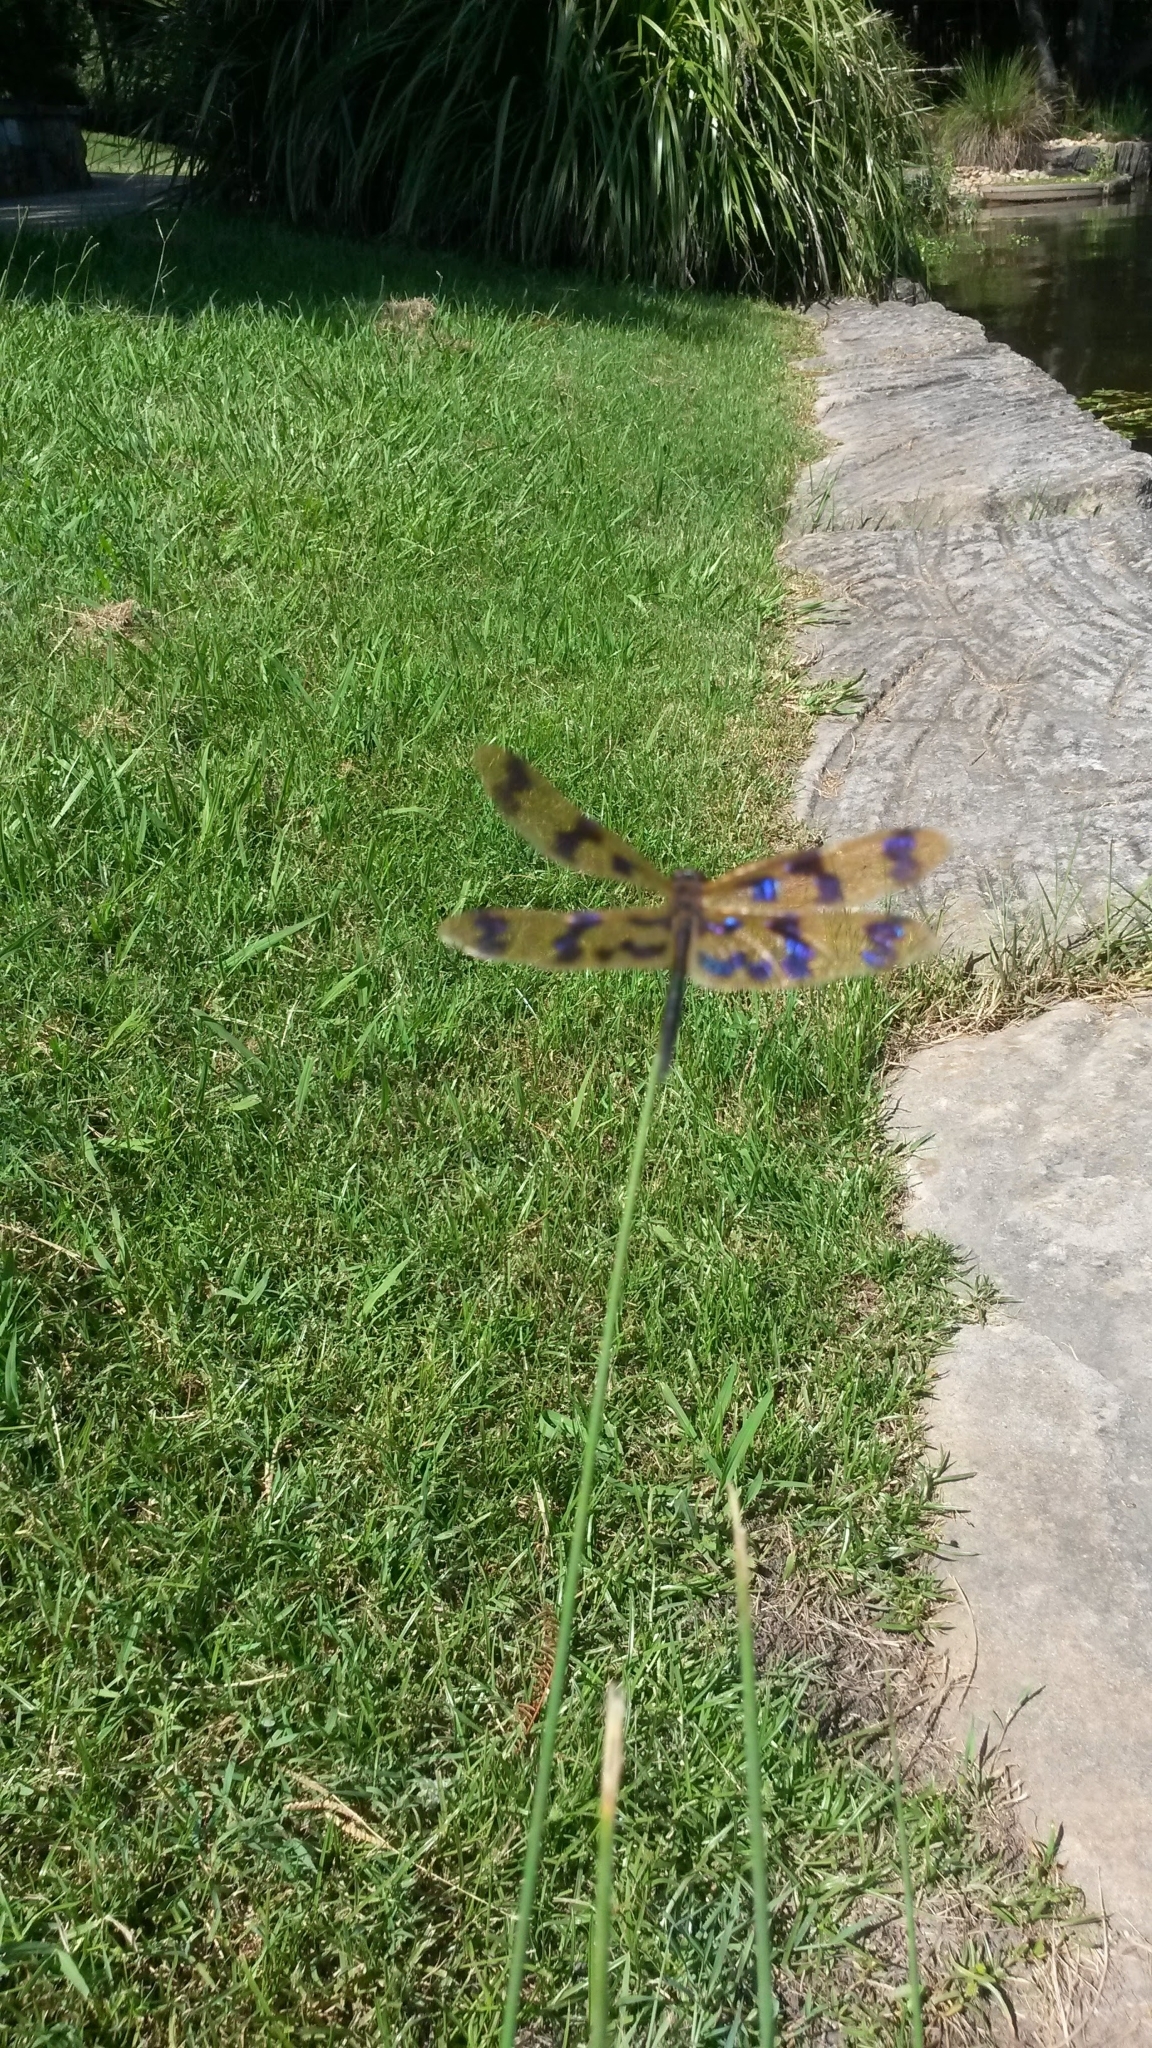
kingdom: Animalia
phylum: Arthropoda
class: Insecta
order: Odonata
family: Libellulidae
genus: Rhyothemis
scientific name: Rhyothemis graphiptera
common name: Graphic flutterer
